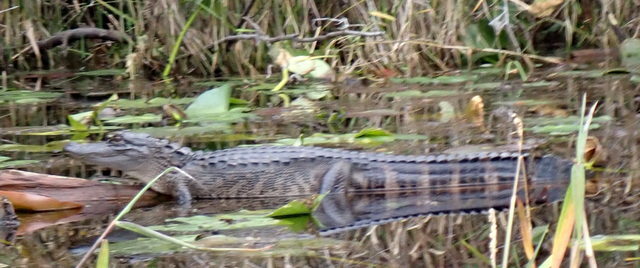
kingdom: Animalia
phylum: Chordata
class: Crocodylia
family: Alligatoridae
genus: Alligator
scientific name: Alligator mississippiensis
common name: American alligator
